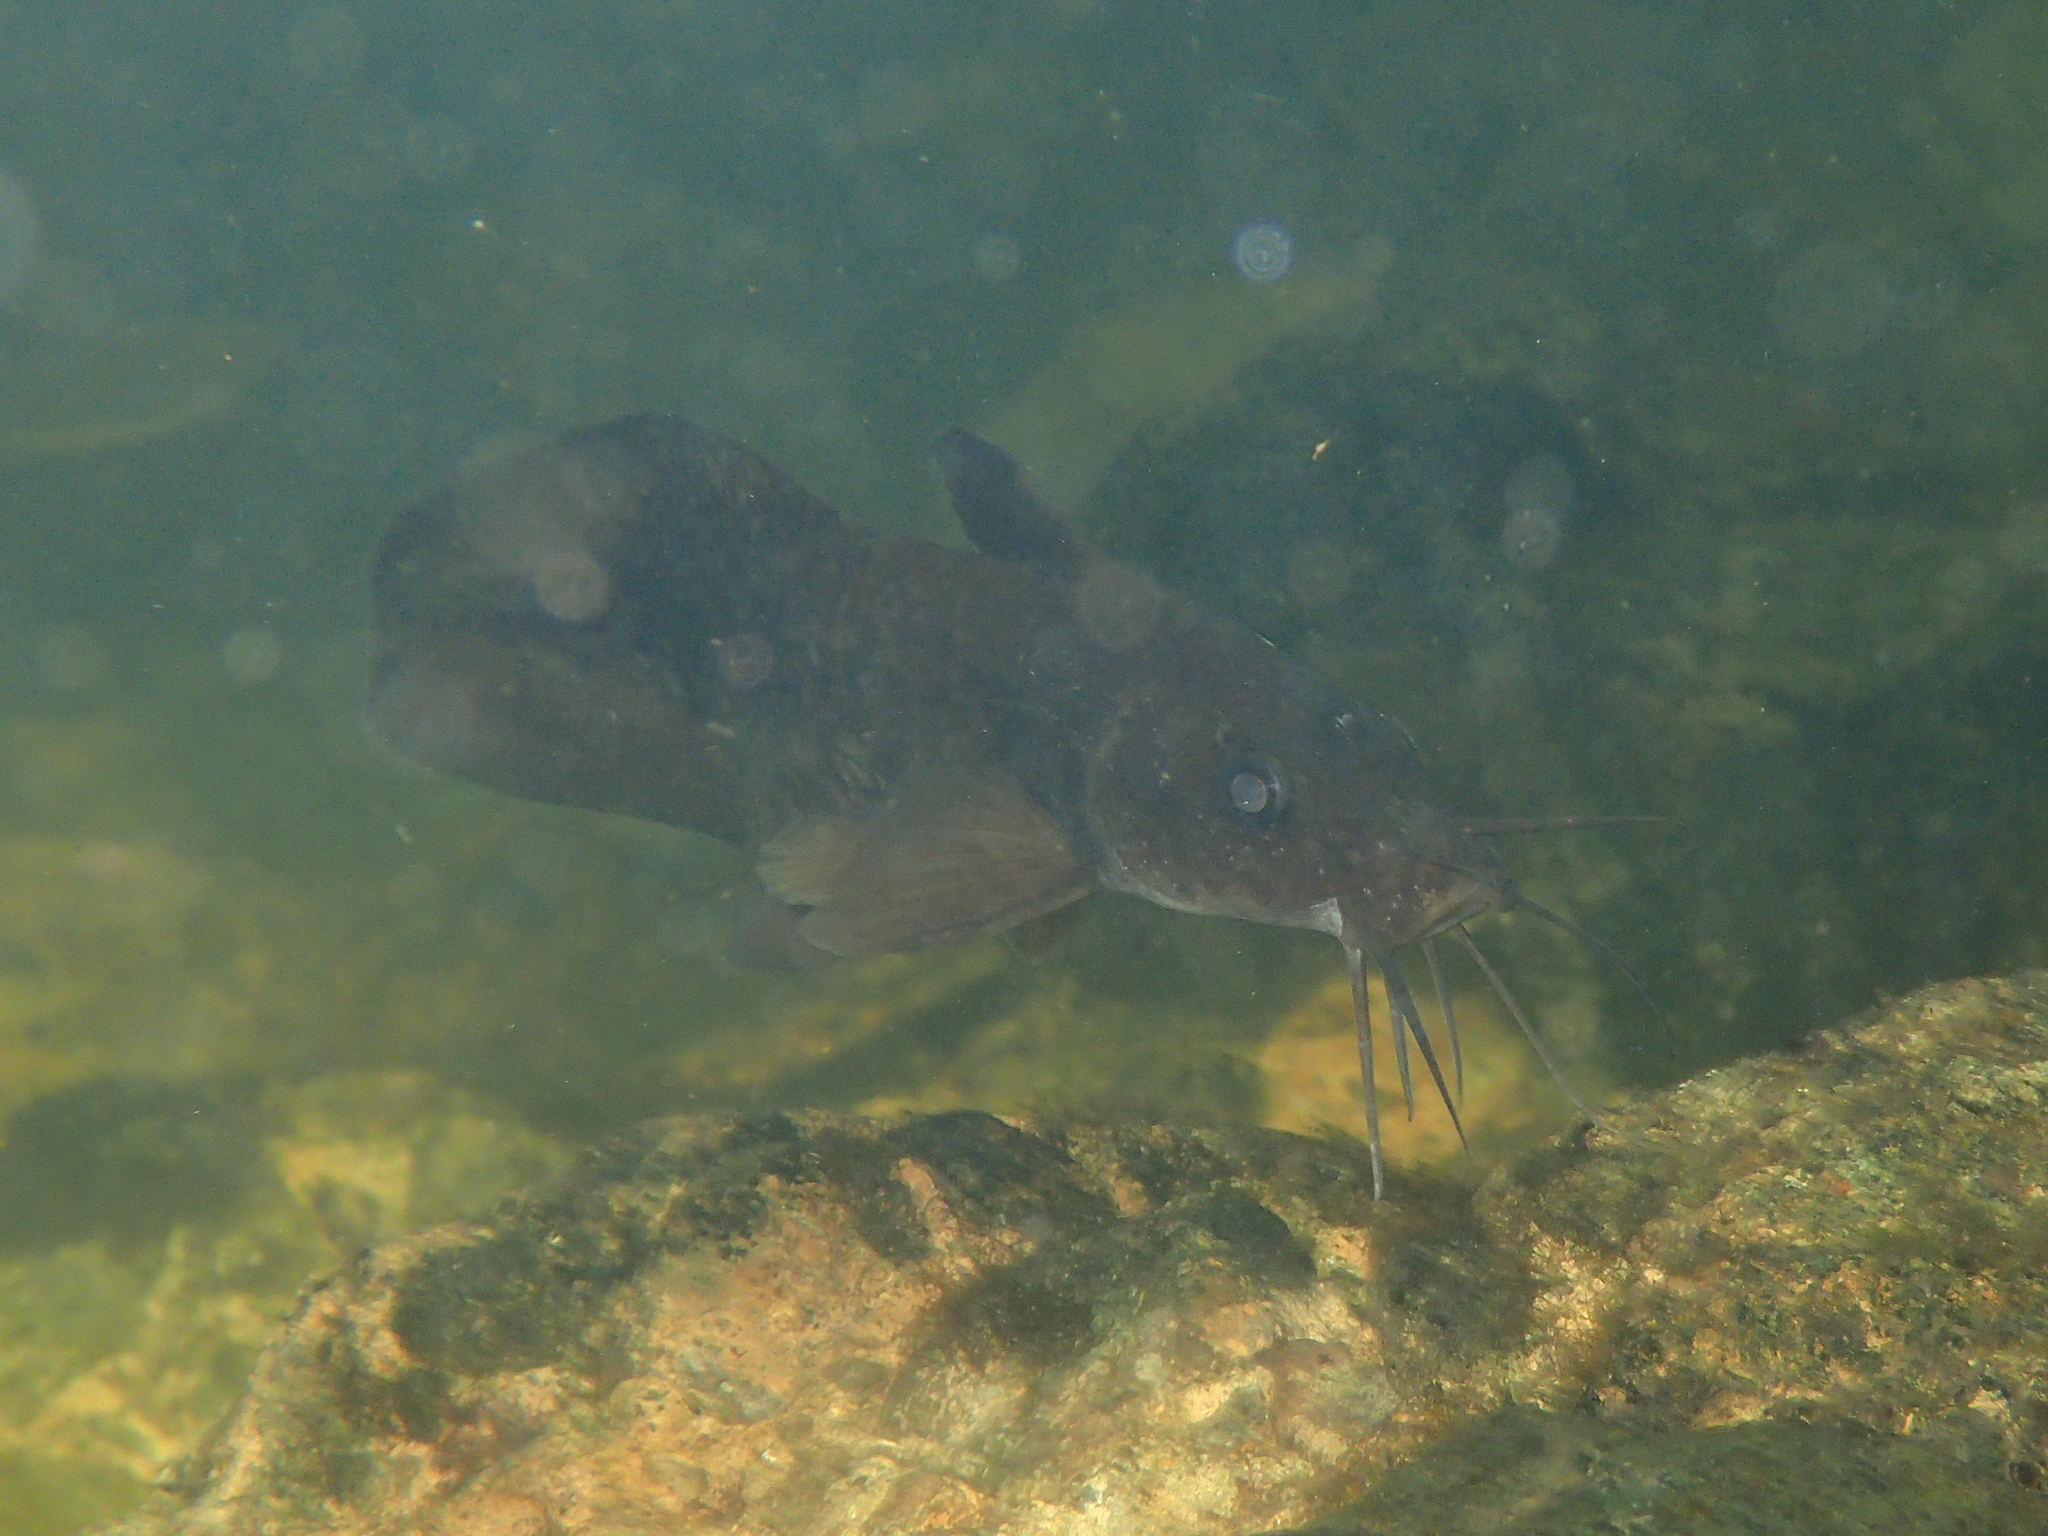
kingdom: Animalia
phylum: Chordata
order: Siluriformes
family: Plotosidae
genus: Tandanus
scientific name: Tandanus tropicanus
